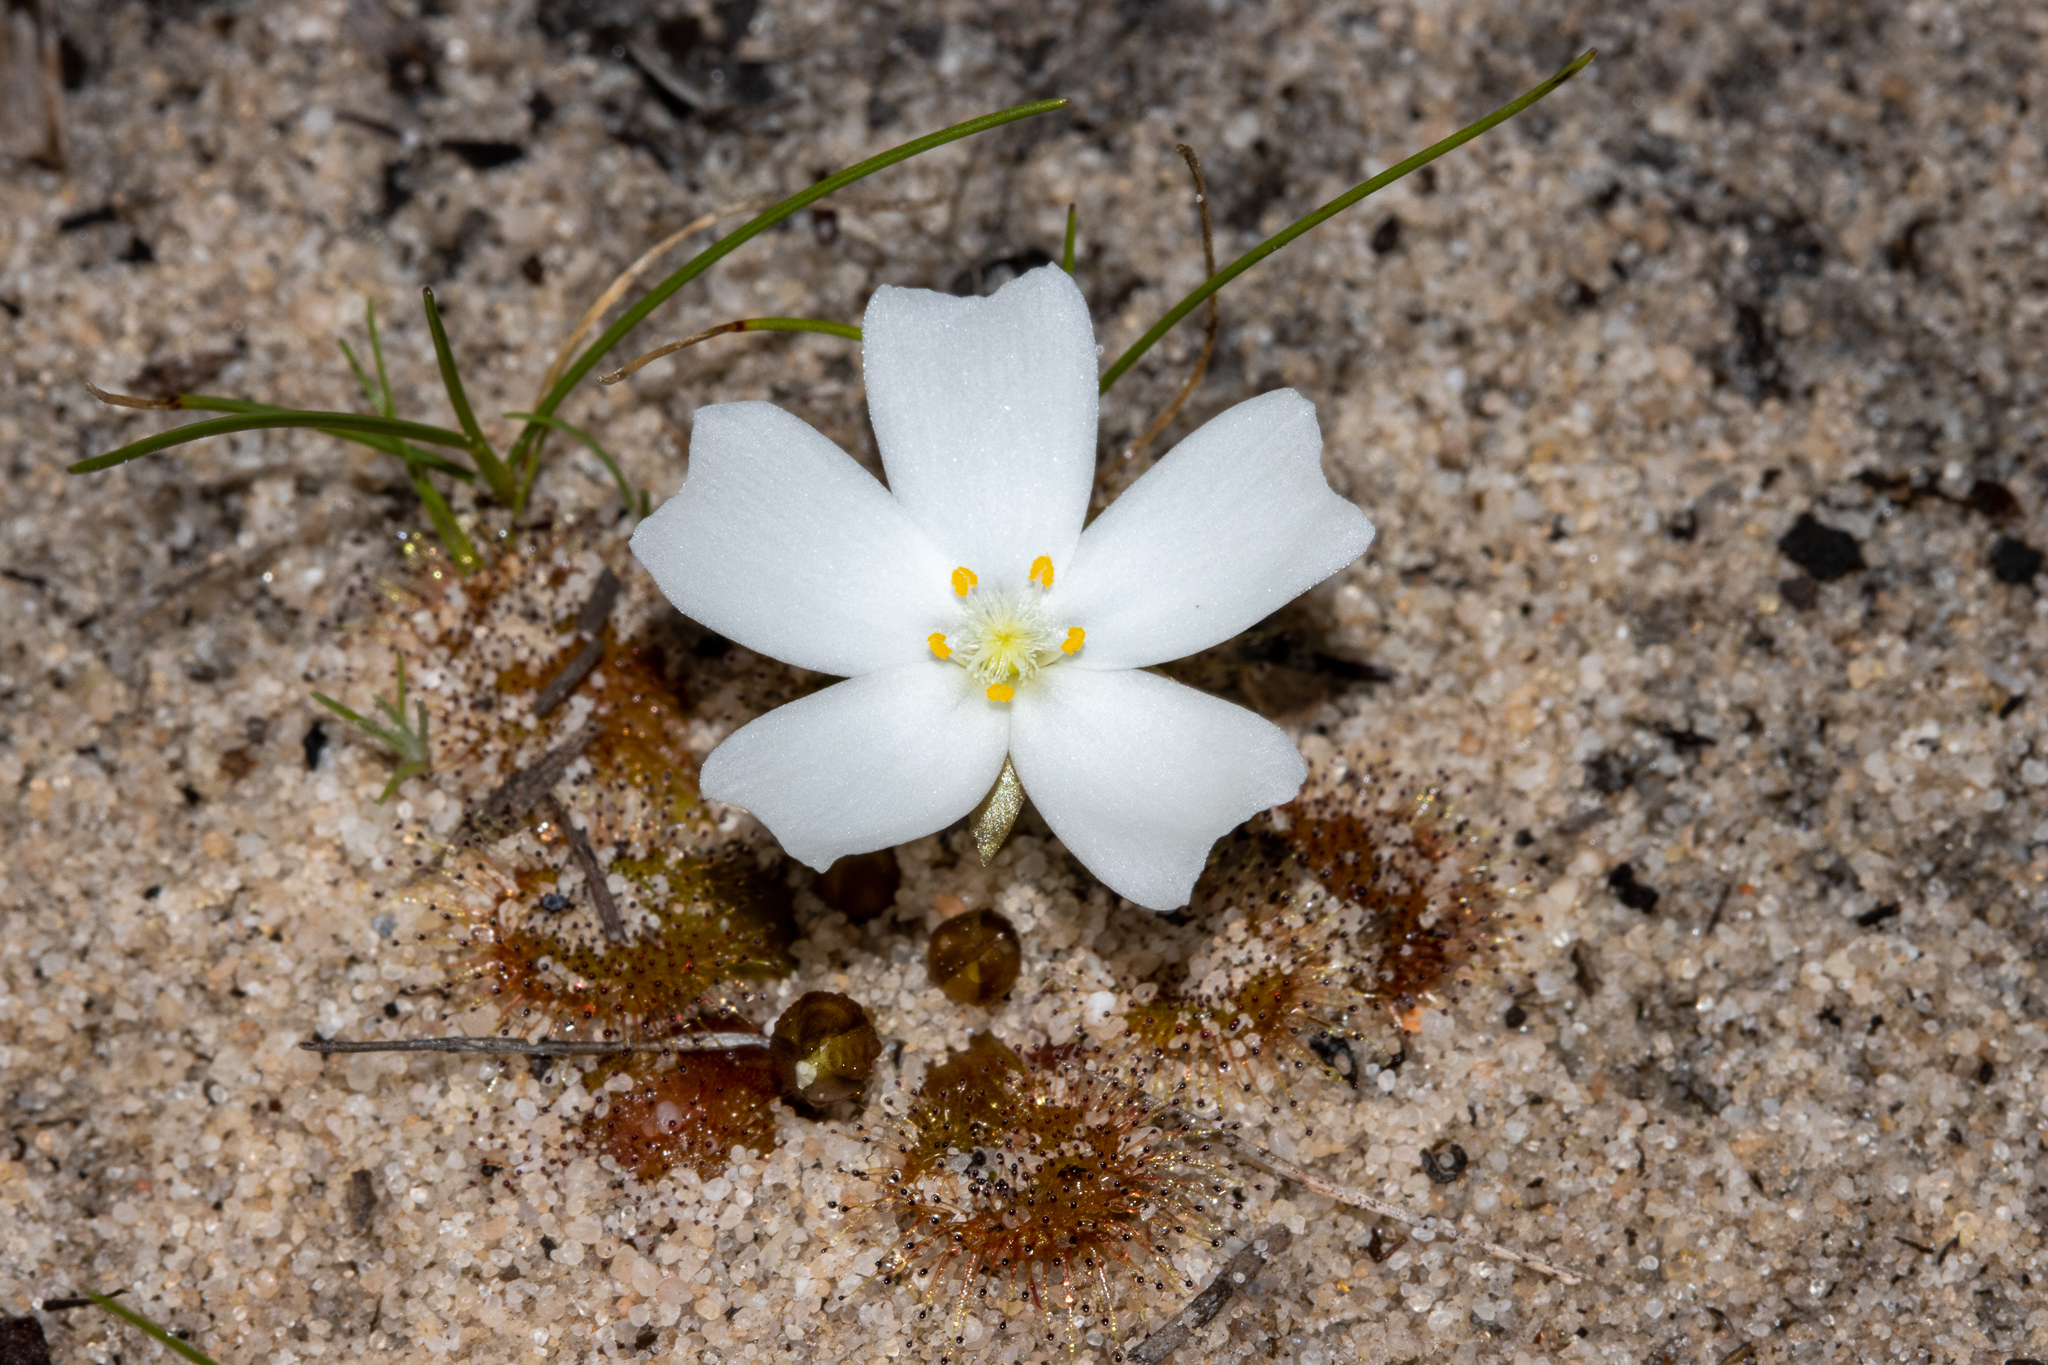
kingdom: Plantae
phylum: Tracheophyta
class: Magnoliopsida
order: Caryophyllales
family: Droseraceae
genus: Drosera
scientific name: Drosera whittakeri
